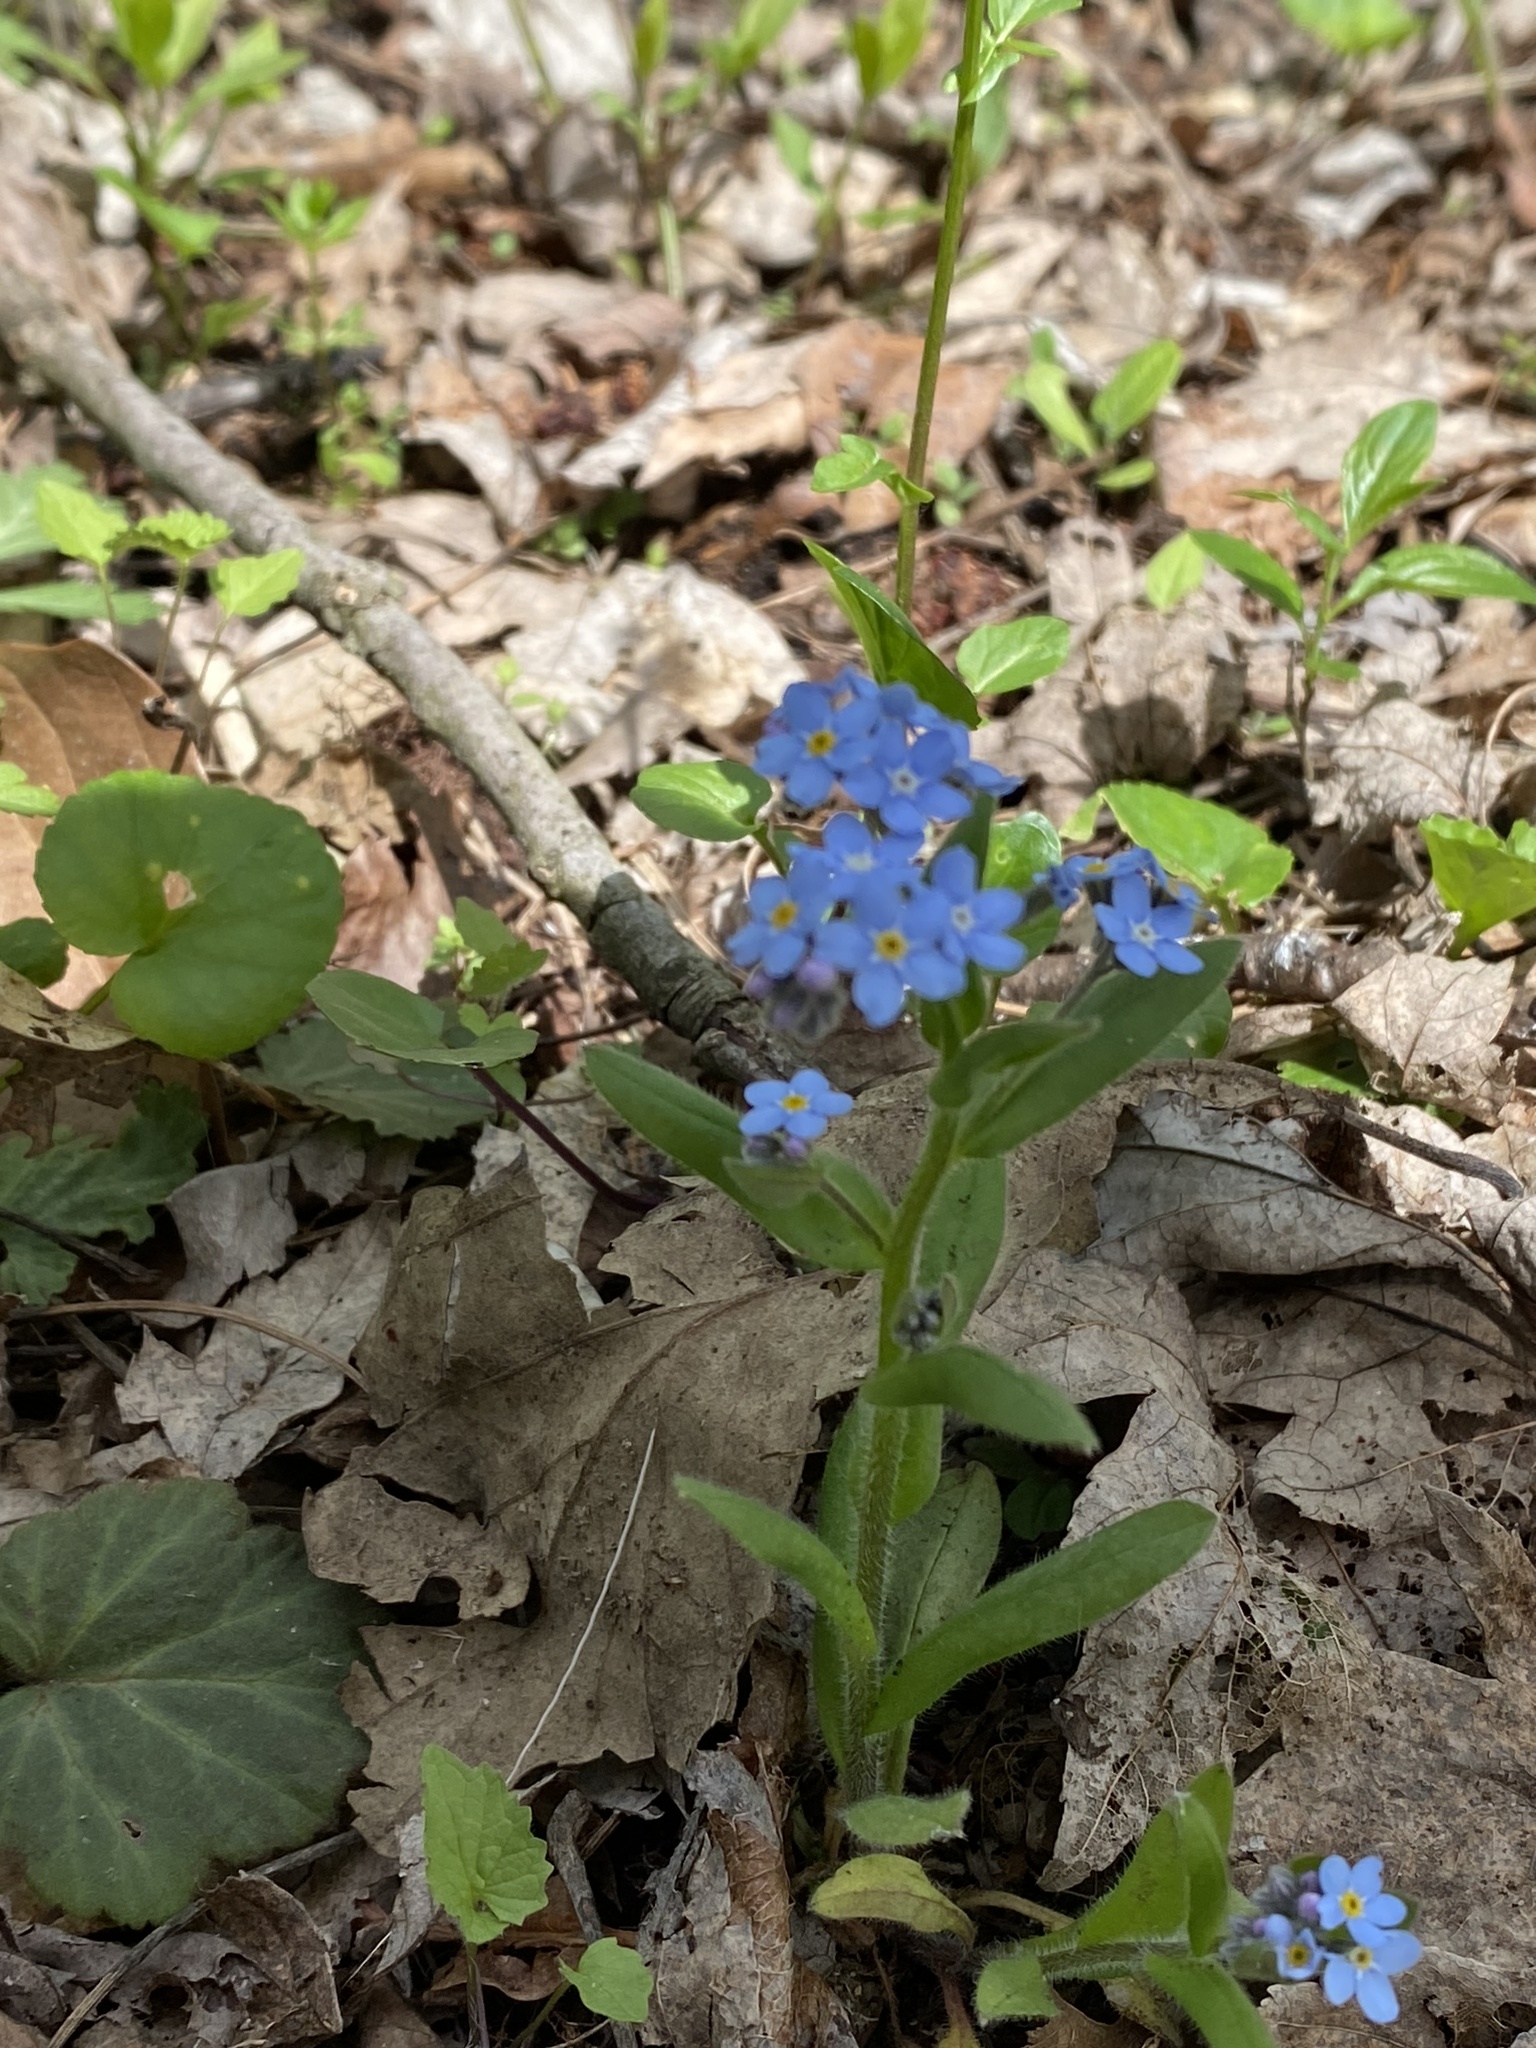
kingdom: Plantae
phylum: Tracheophyta
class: Magnoliopsida
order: Boraginales
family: Boraginaceae
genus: Myosotis
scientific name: Myosotis sylvatica
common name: Wood forget-me-not
